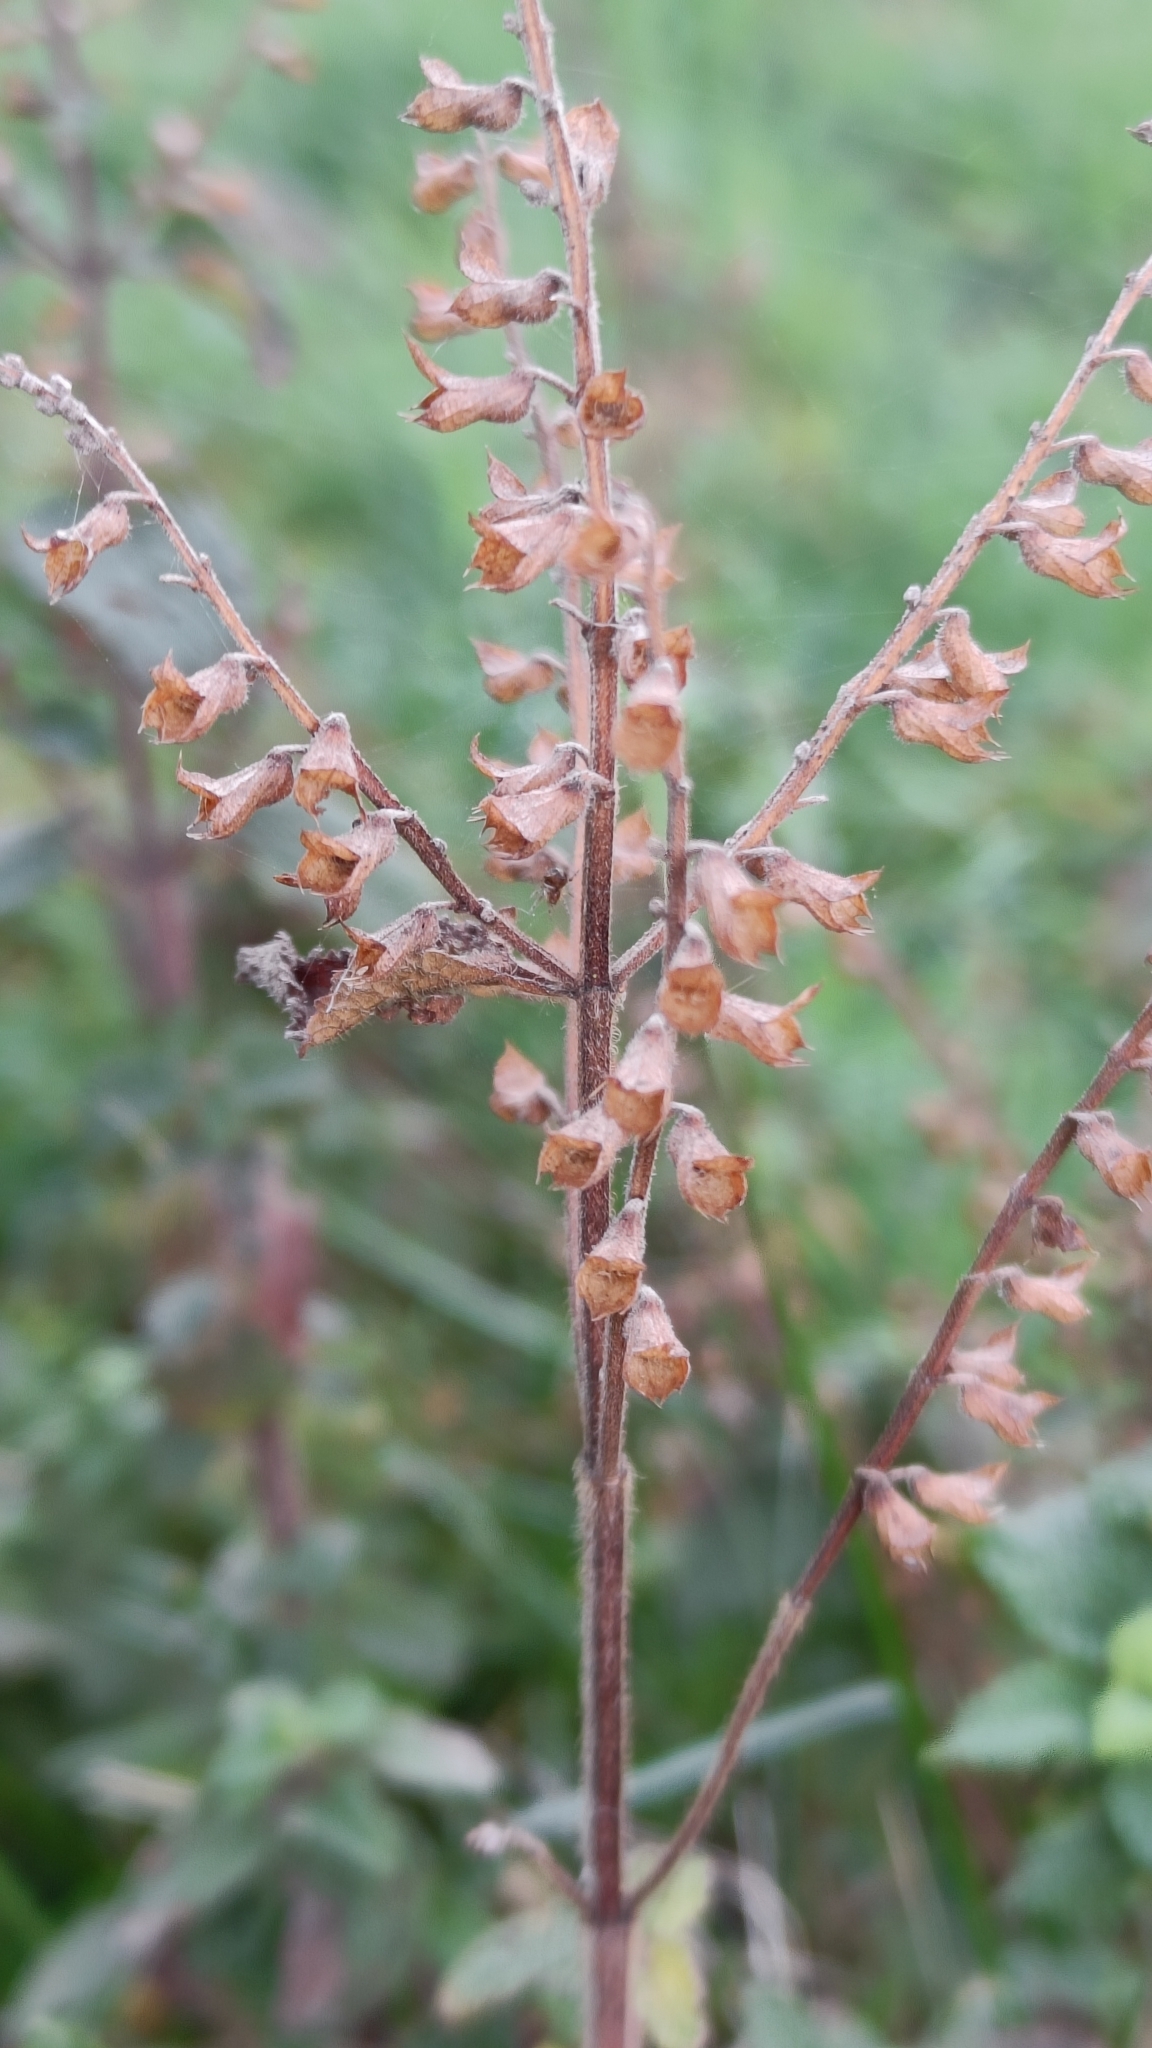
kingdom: Plantae
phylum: Tracheophyta
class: Magnoliopsida
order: Lamiales
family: Lamiaceae
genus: Teucrium
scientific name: Teucrium scorodonia
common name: Woodland germander
